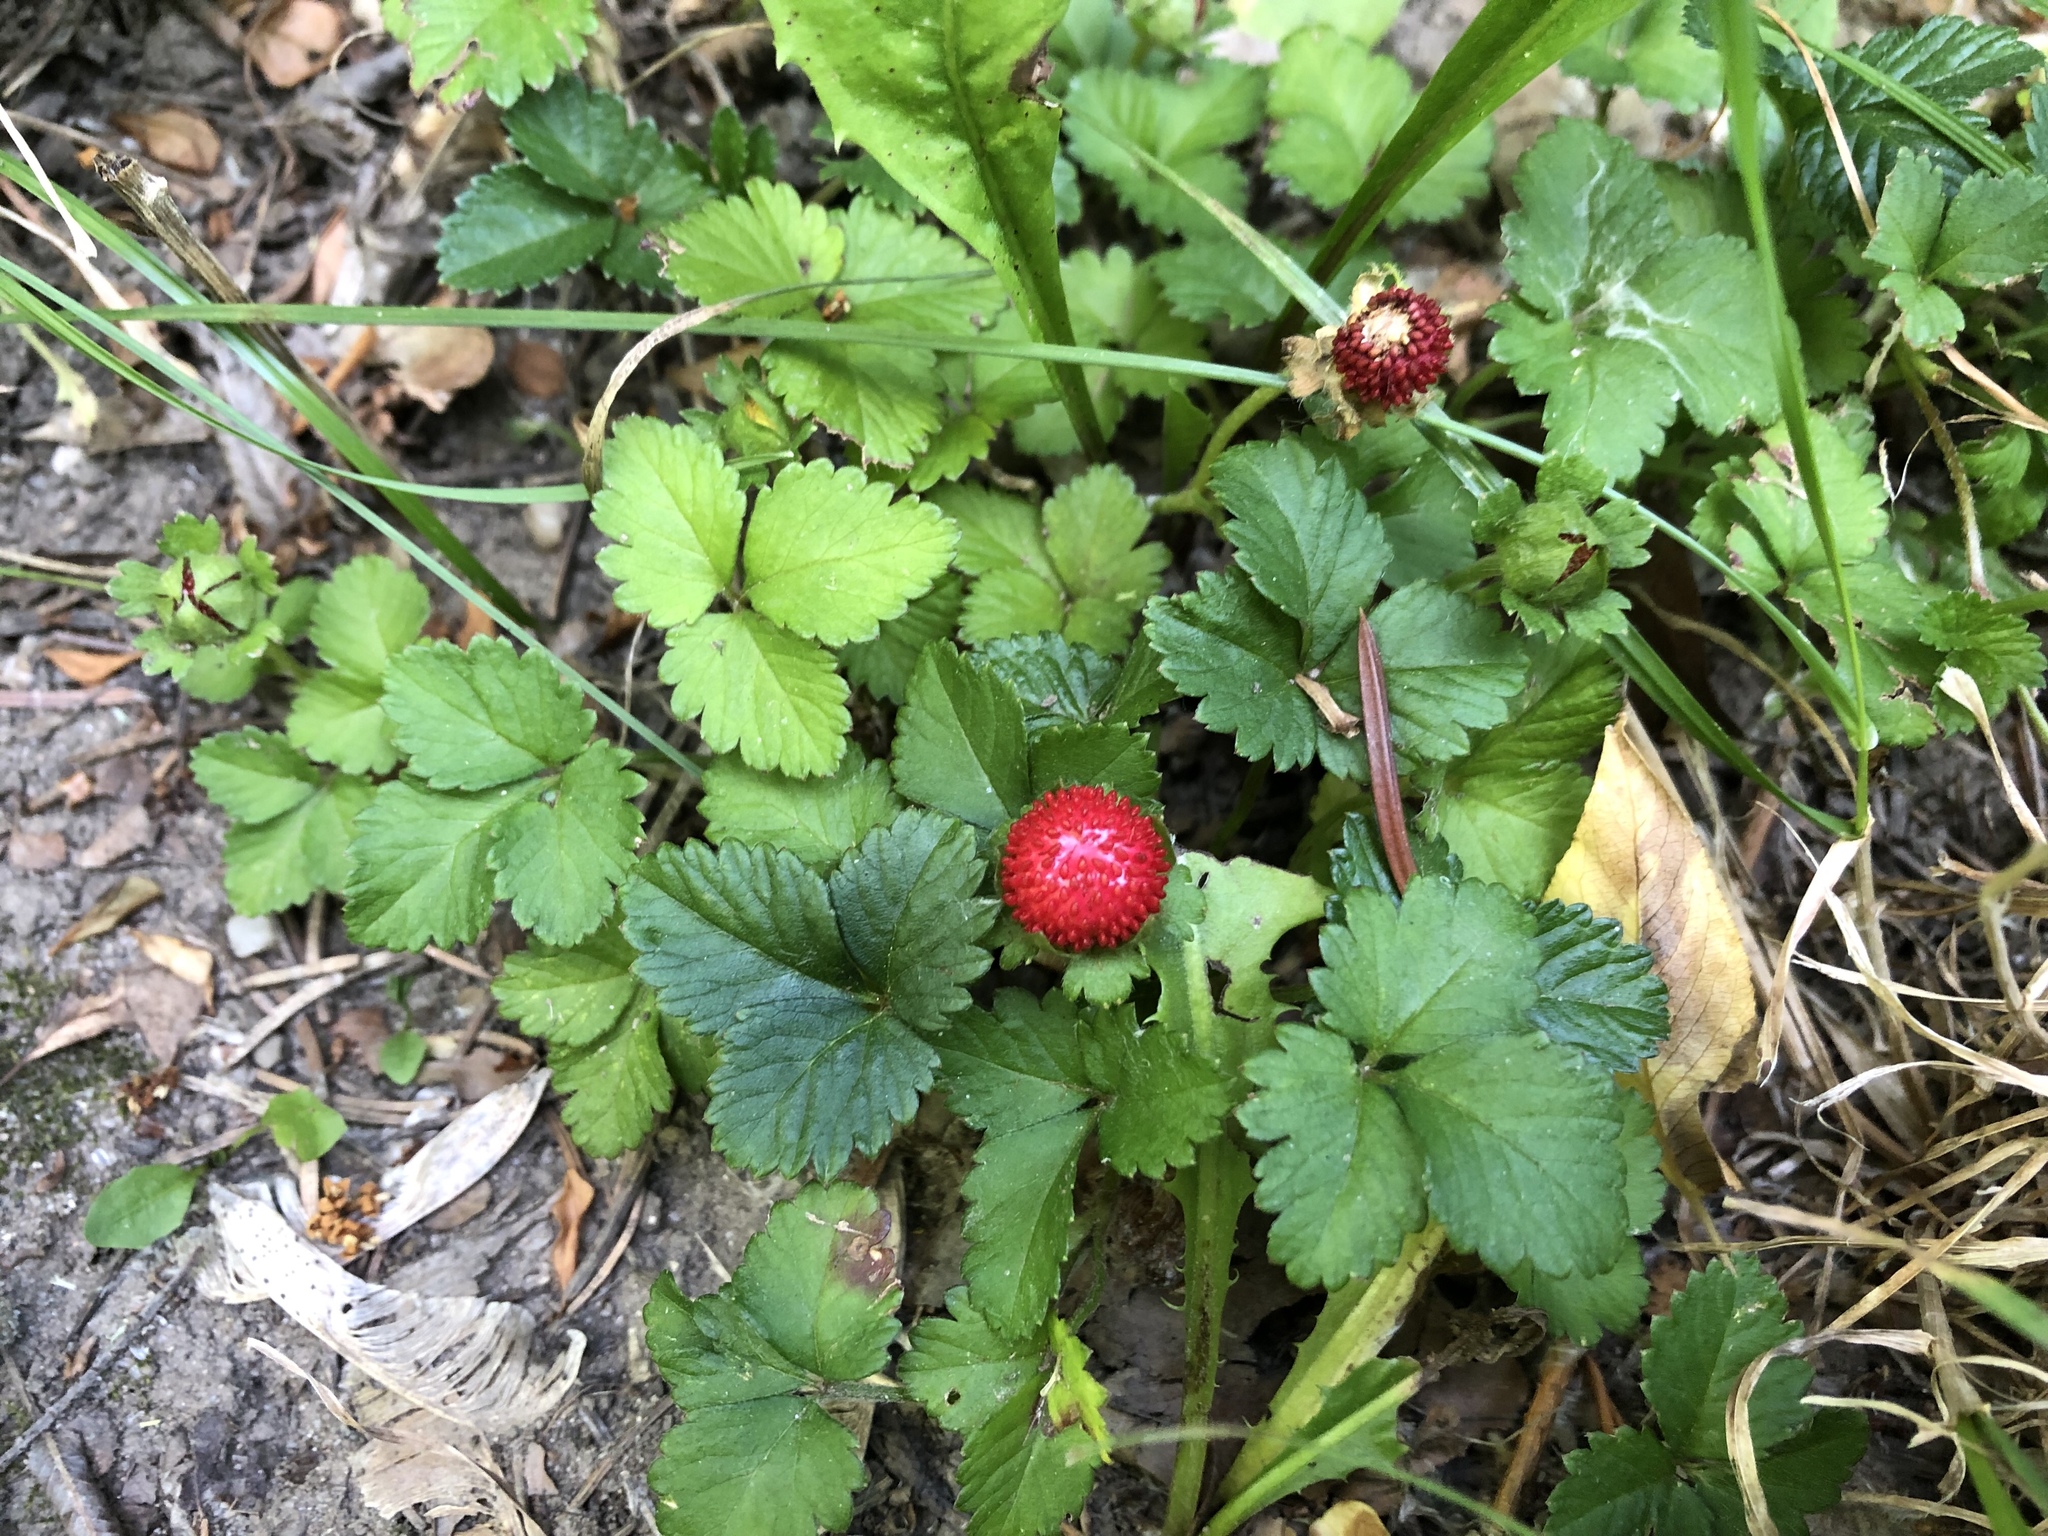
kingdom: Plantae
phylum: Tracheophyta
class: Magnoliopsida
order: Rosales
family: Rosaceae
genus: Potentilla
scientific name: Potentilla indica
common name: Yellow-flowered strawberry
